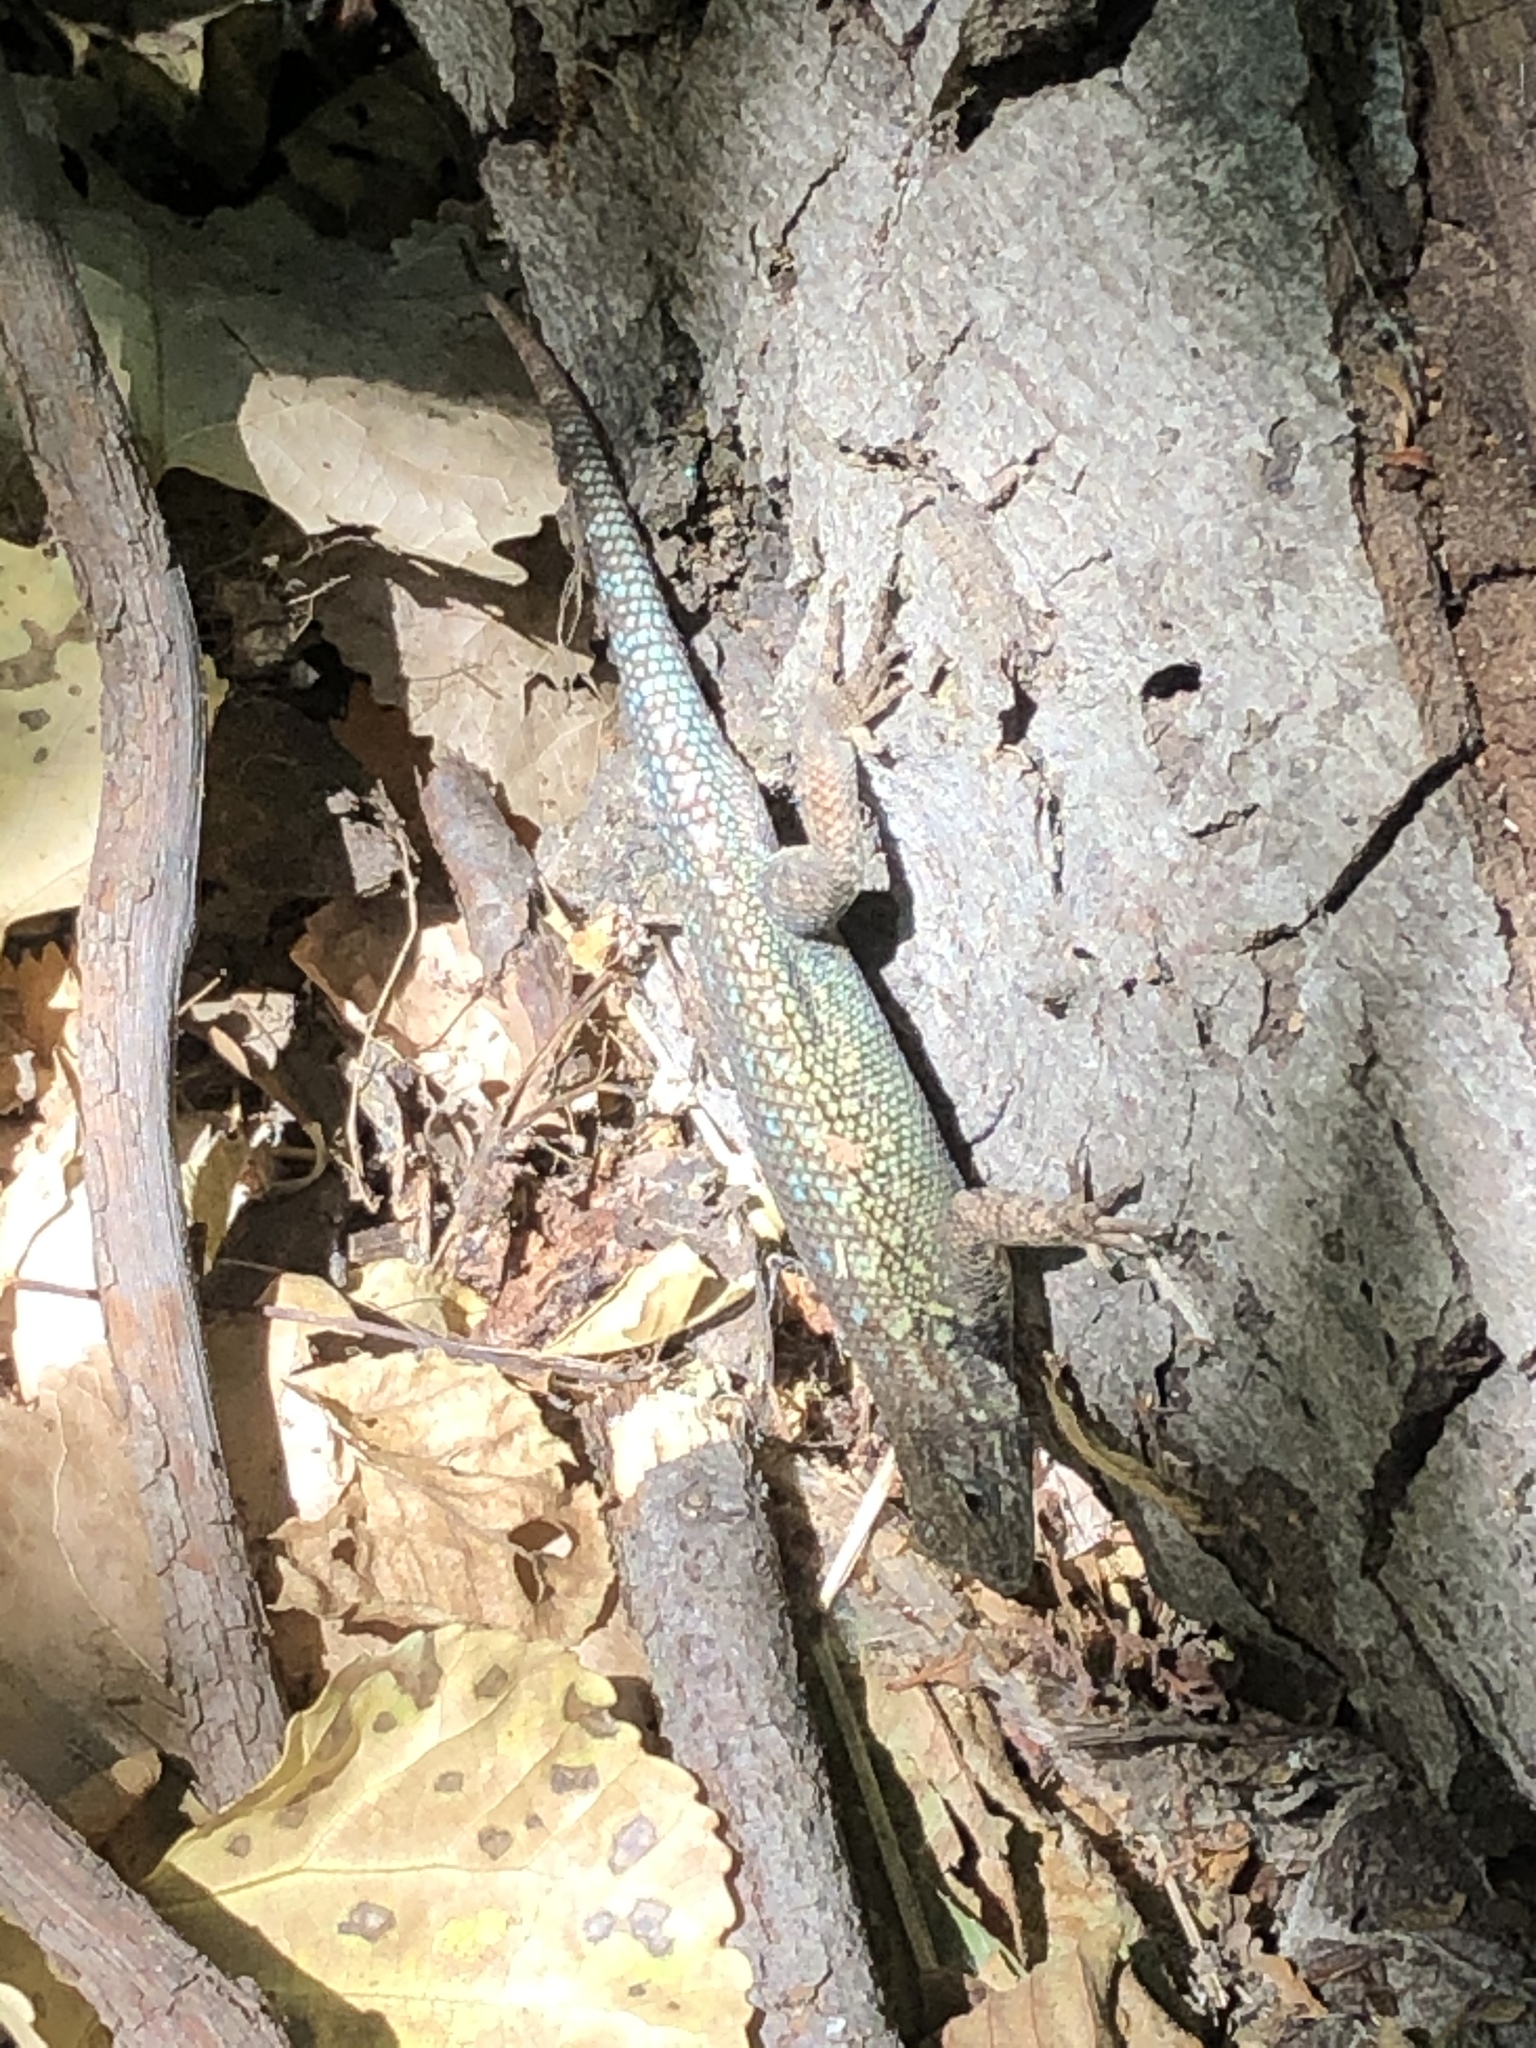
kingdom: Animalia
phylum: Chordata
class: Squamata
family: Phrynosomatidae
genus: Sceloporus
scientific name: Sceloporus occidentalis
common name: Western fence lizard
